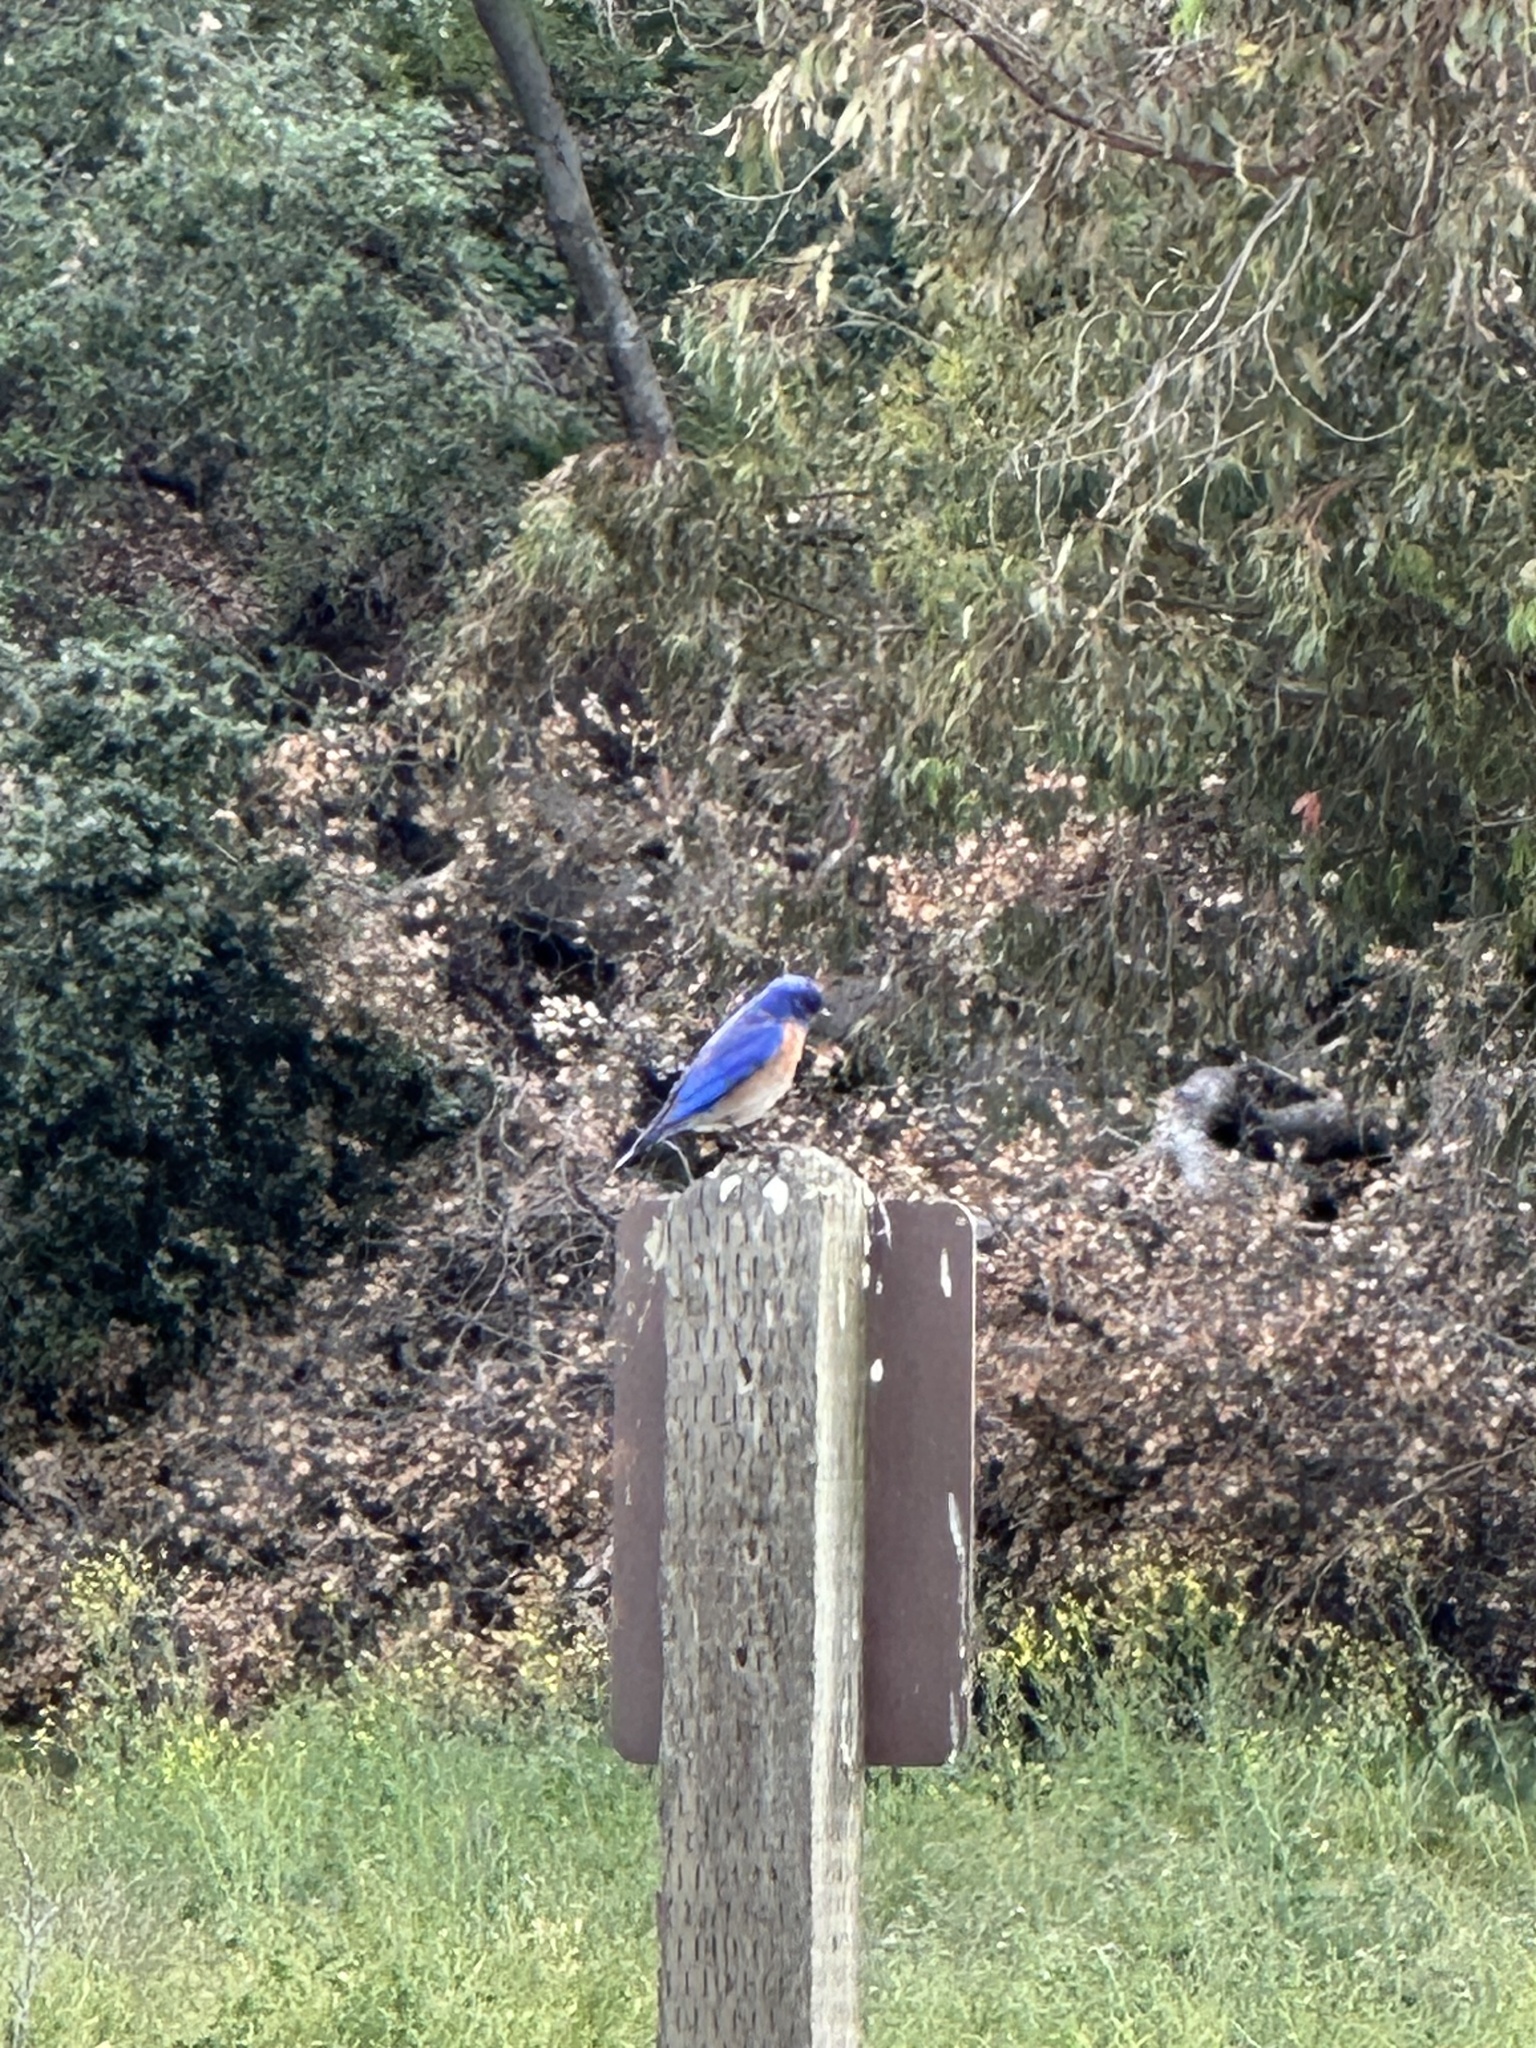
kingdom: Animalia
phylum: Chordata
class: Aves
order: Passeriformes
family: Turdidae
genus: Sialia
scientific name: Sialia mexicana
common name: Western bluebird
